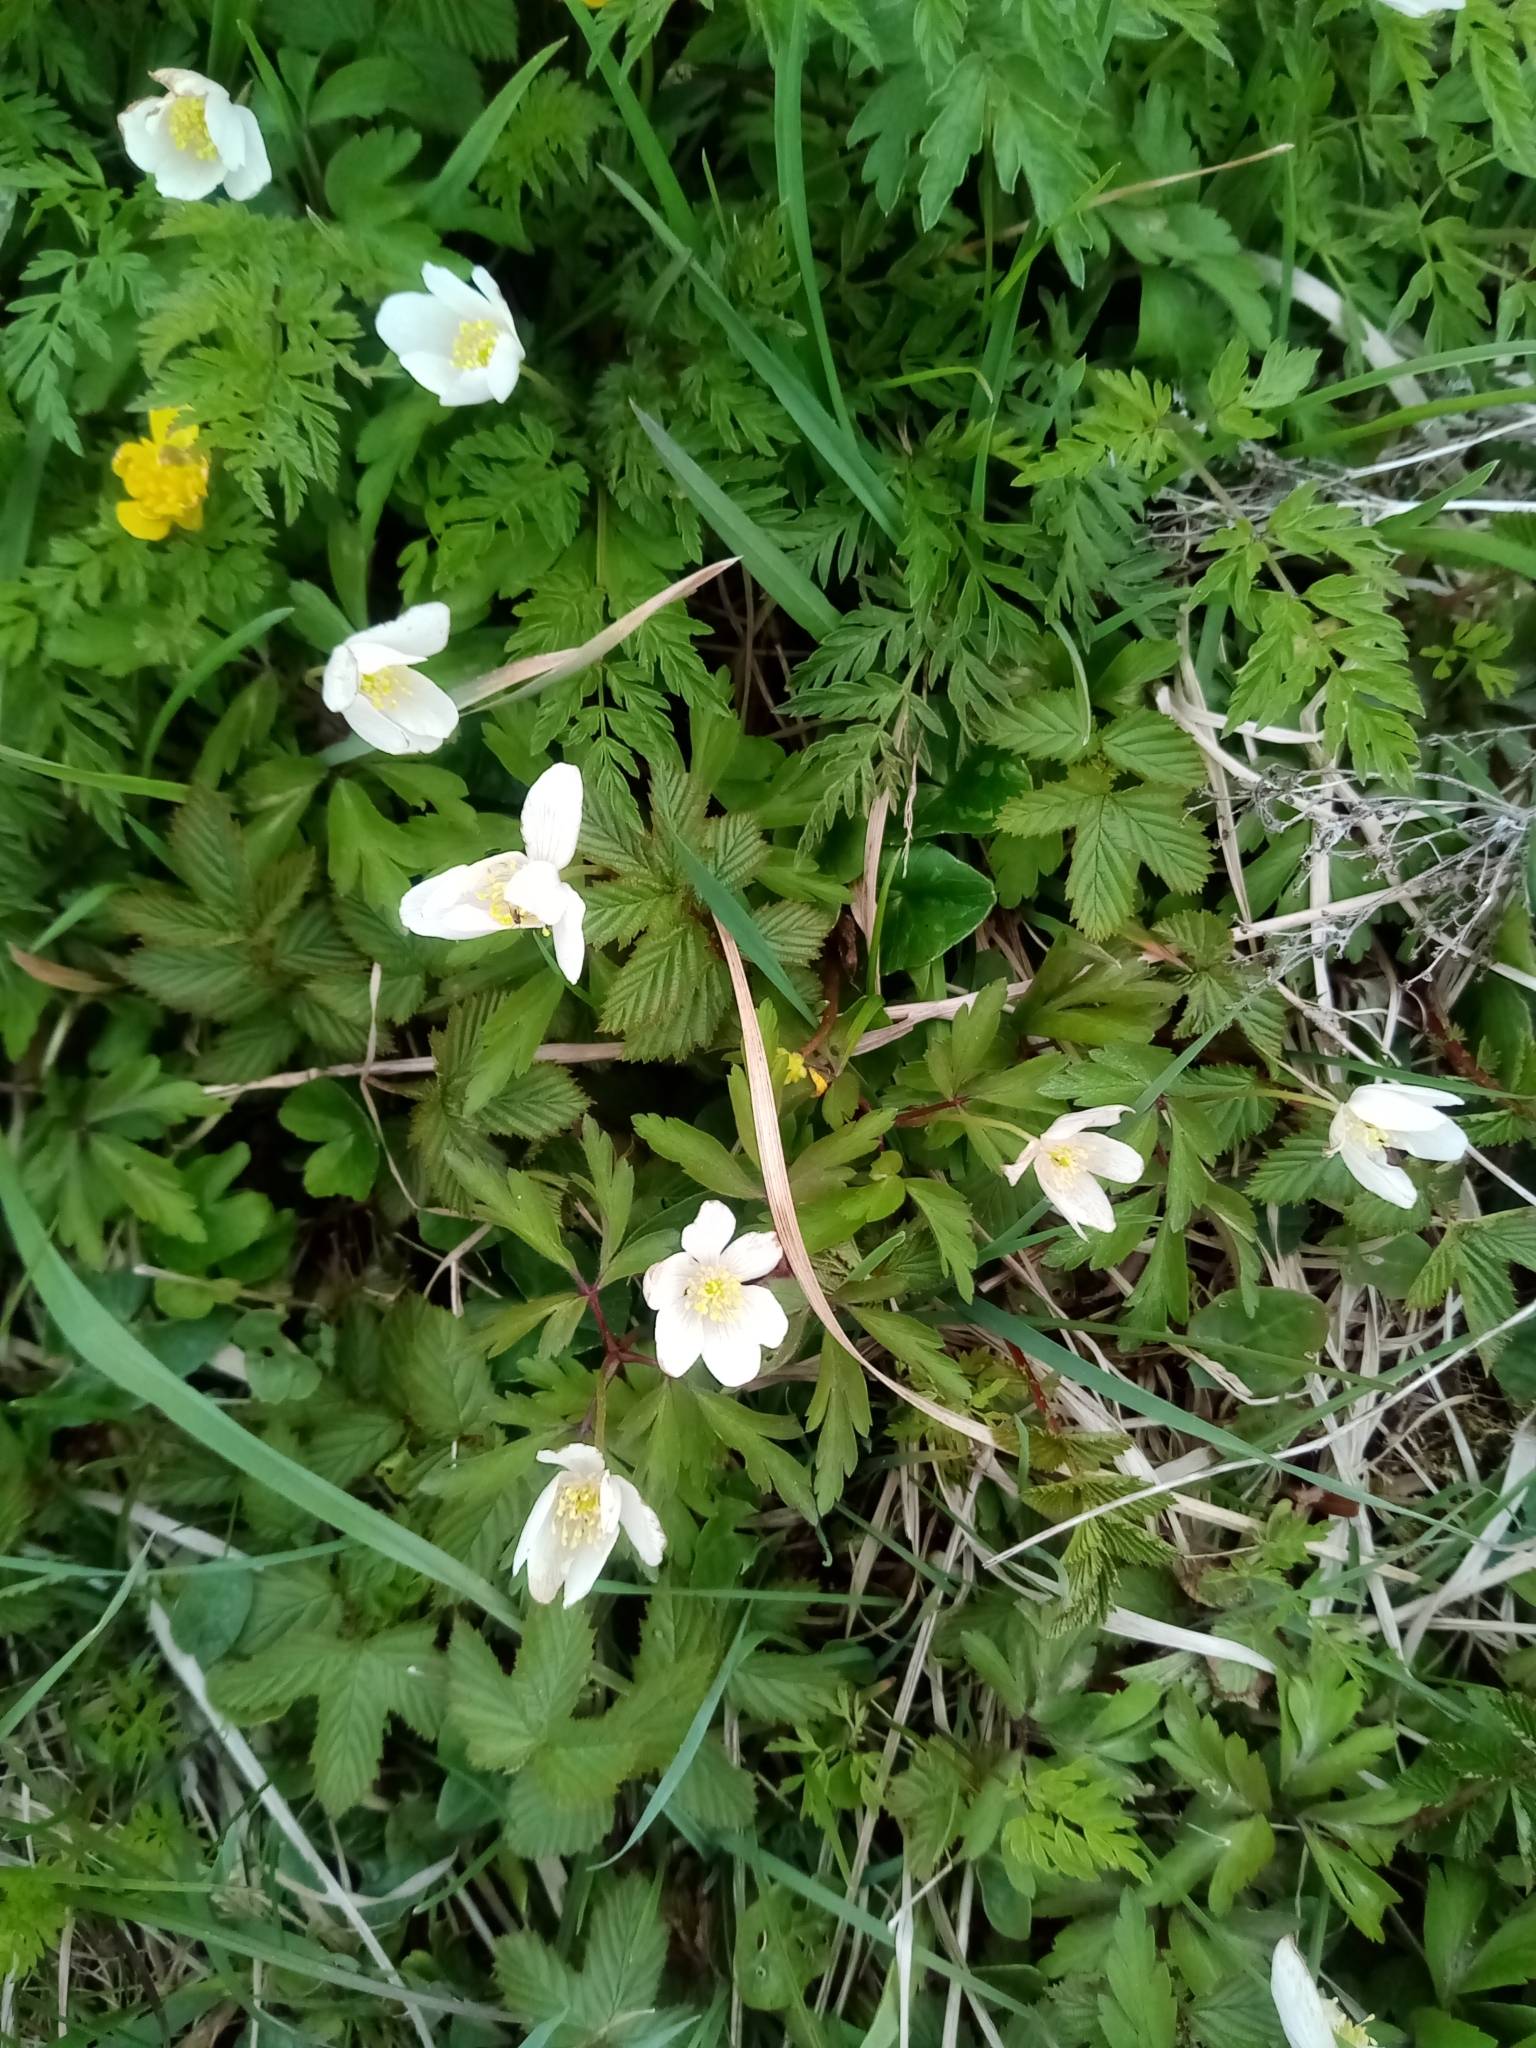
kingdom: Plantae
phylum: Tracheophyta
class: Magnoliopsida
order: Ranunculales
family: Ranunculaceae
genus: Anemone
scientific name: Anemone nemorosa
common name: Wood anemone
